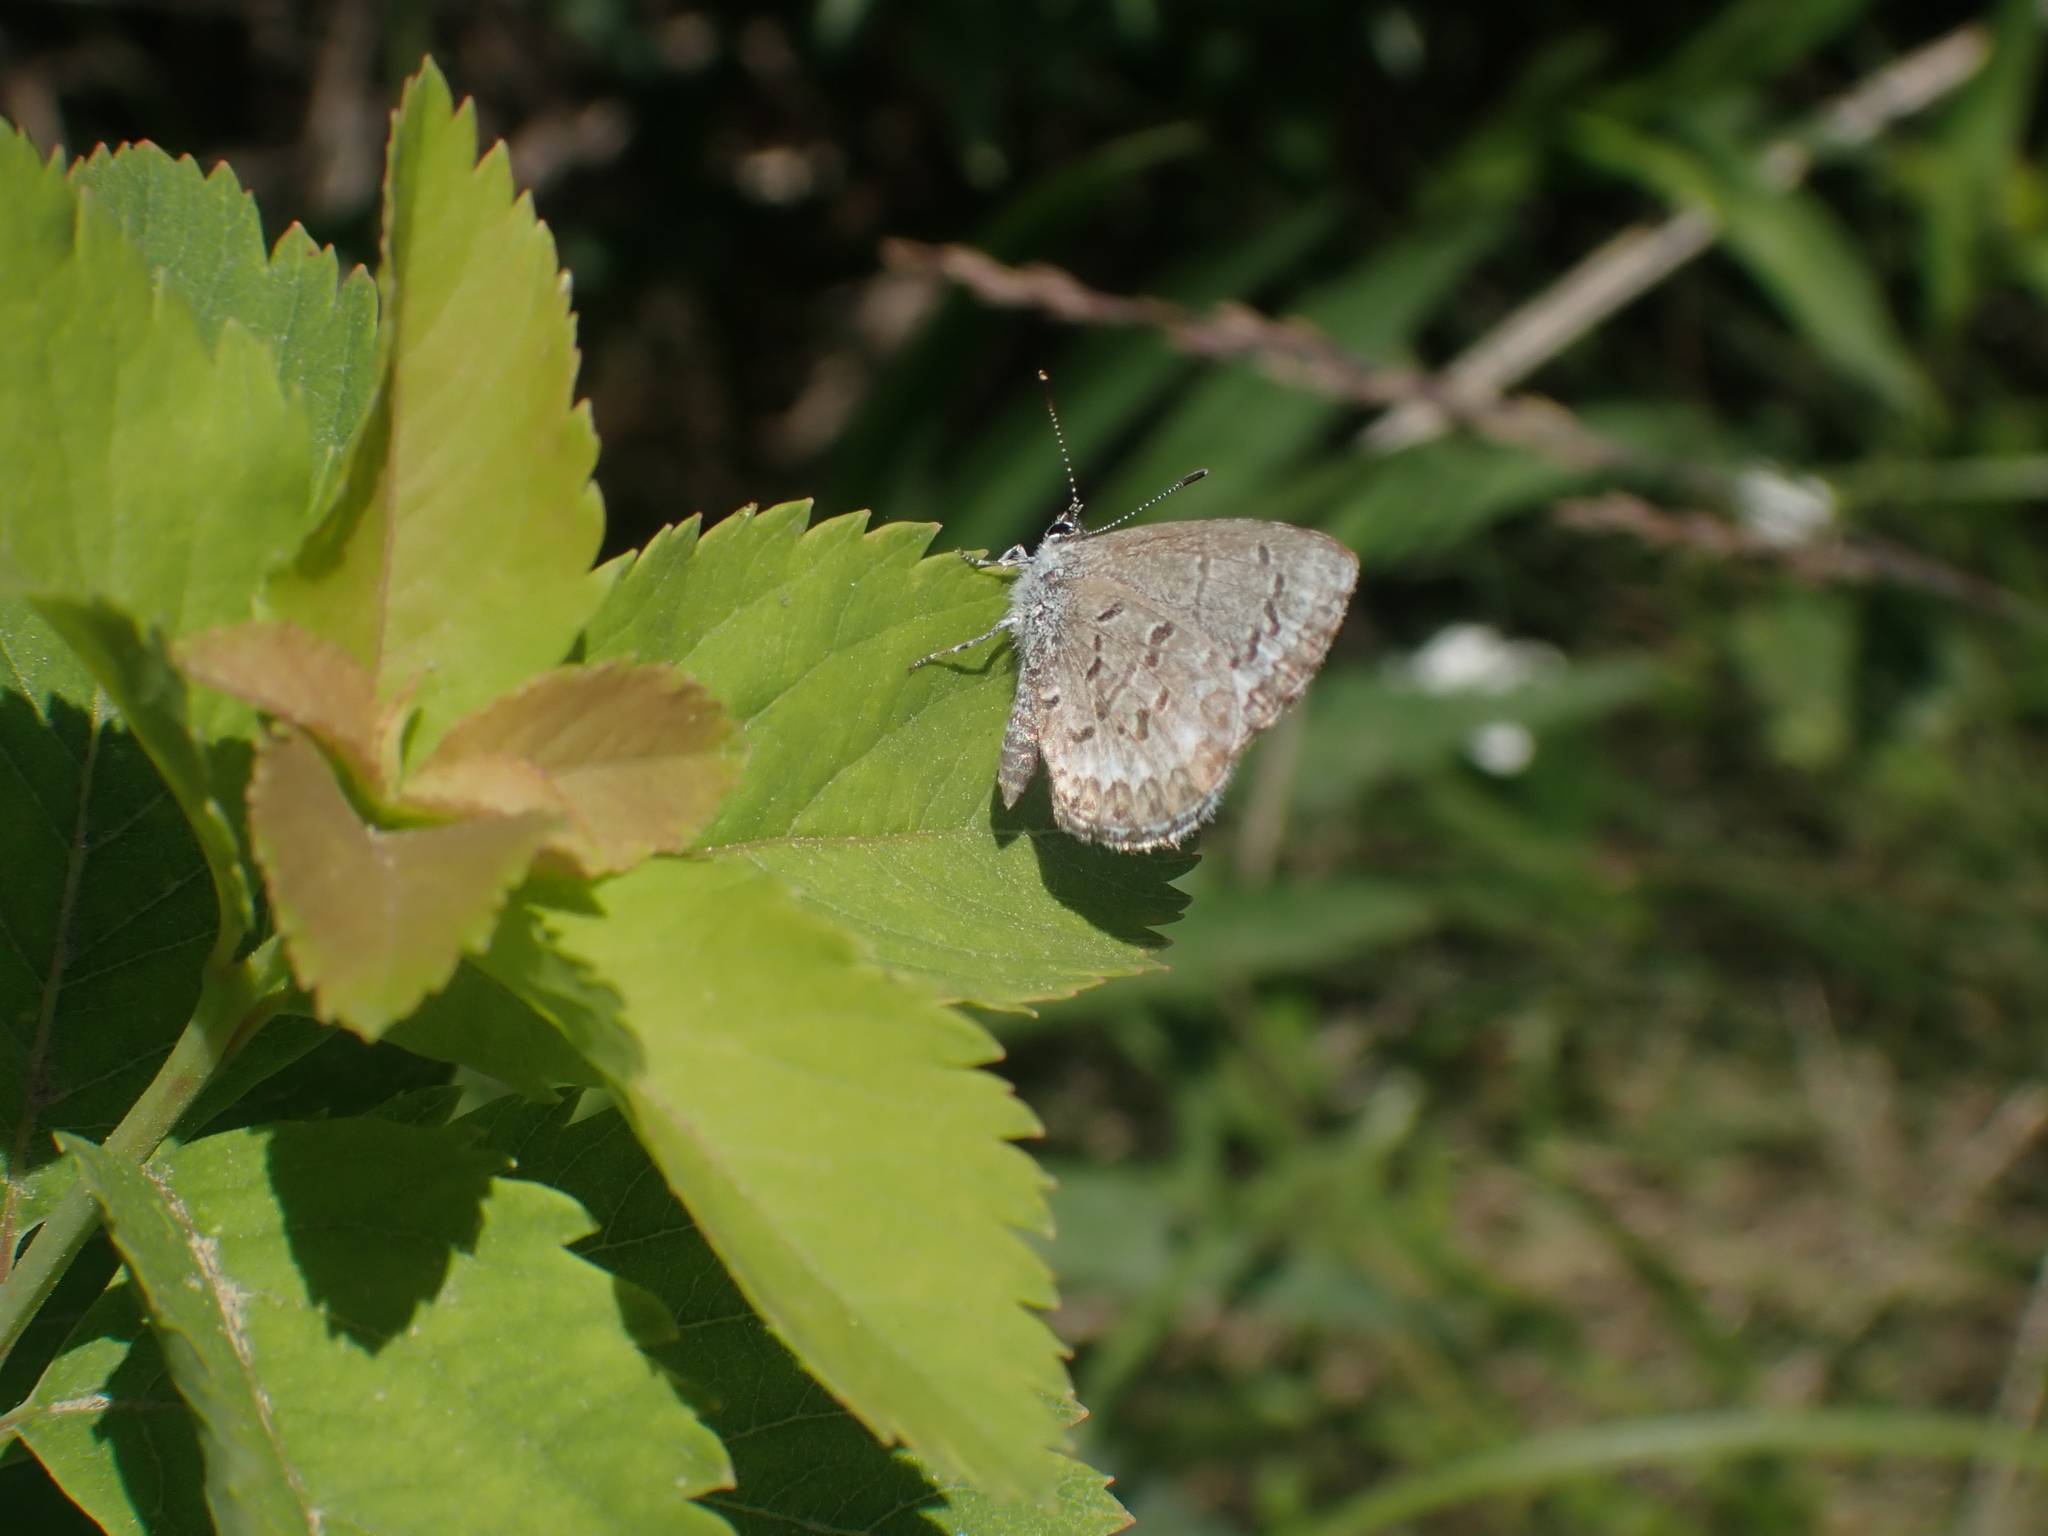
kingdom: Animalia
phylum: Arthropoda
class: Insecta
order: Lepidoptera
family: Lycaenidae
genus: Celastrina
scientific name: Celastrina lucia
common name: Lucia azure
